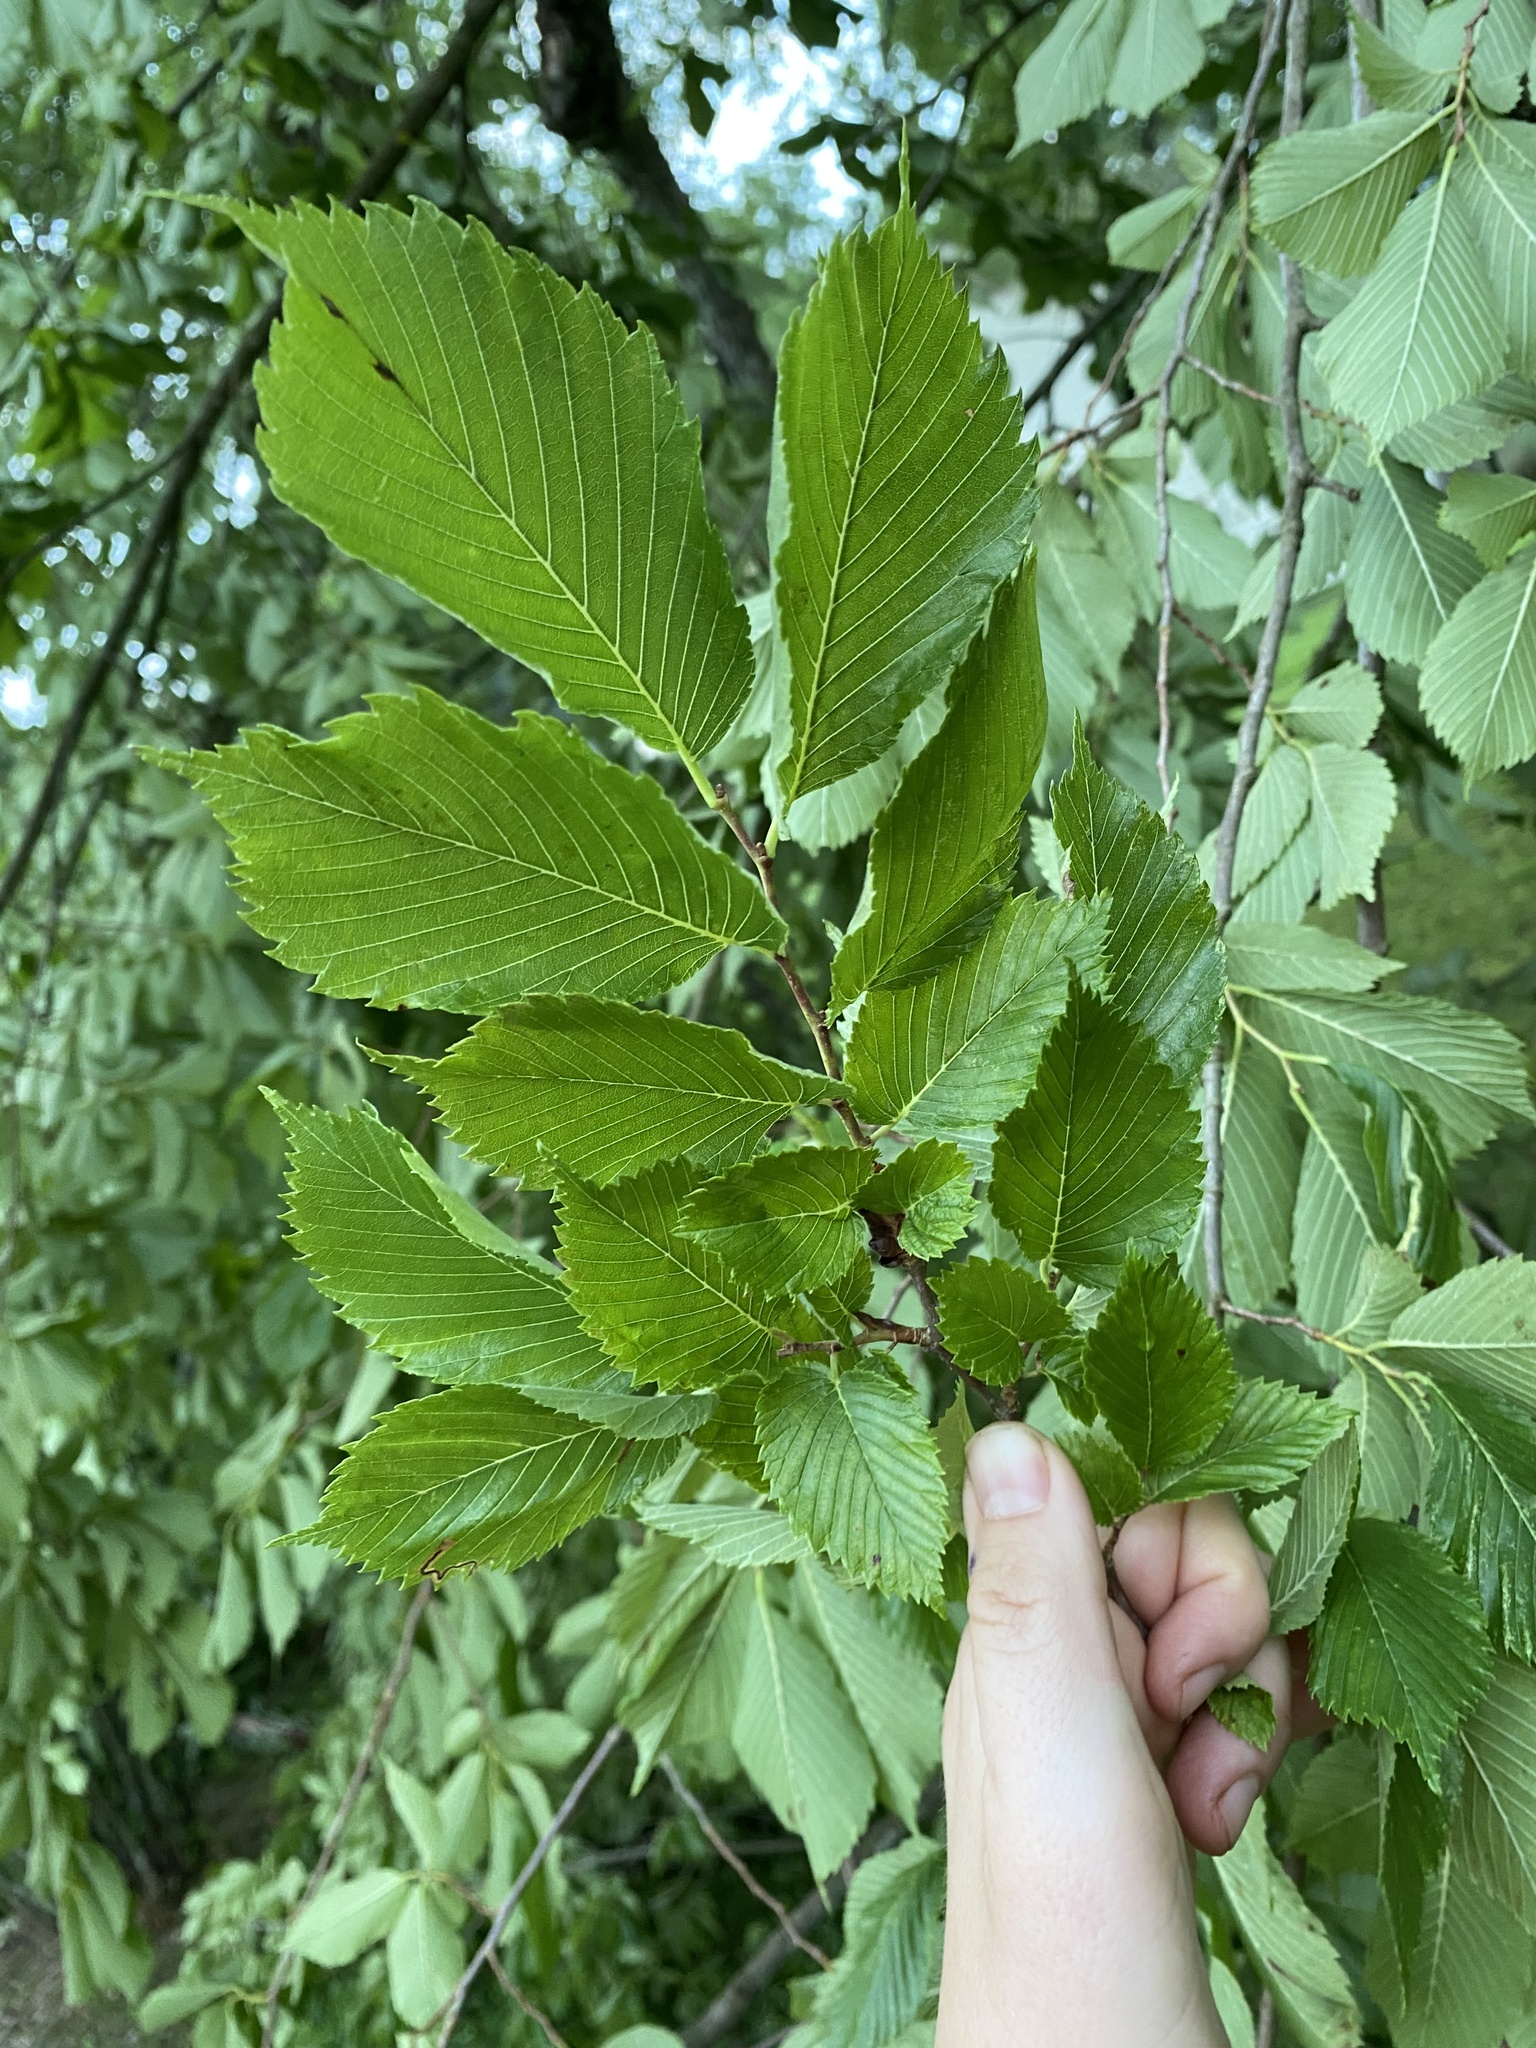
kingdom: Plantae
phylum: Tracheophyta
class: Magnoliopsida
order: Rosales
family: Ulmaceae
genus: Ulmus
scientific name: Ulmus americana
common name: American elm
